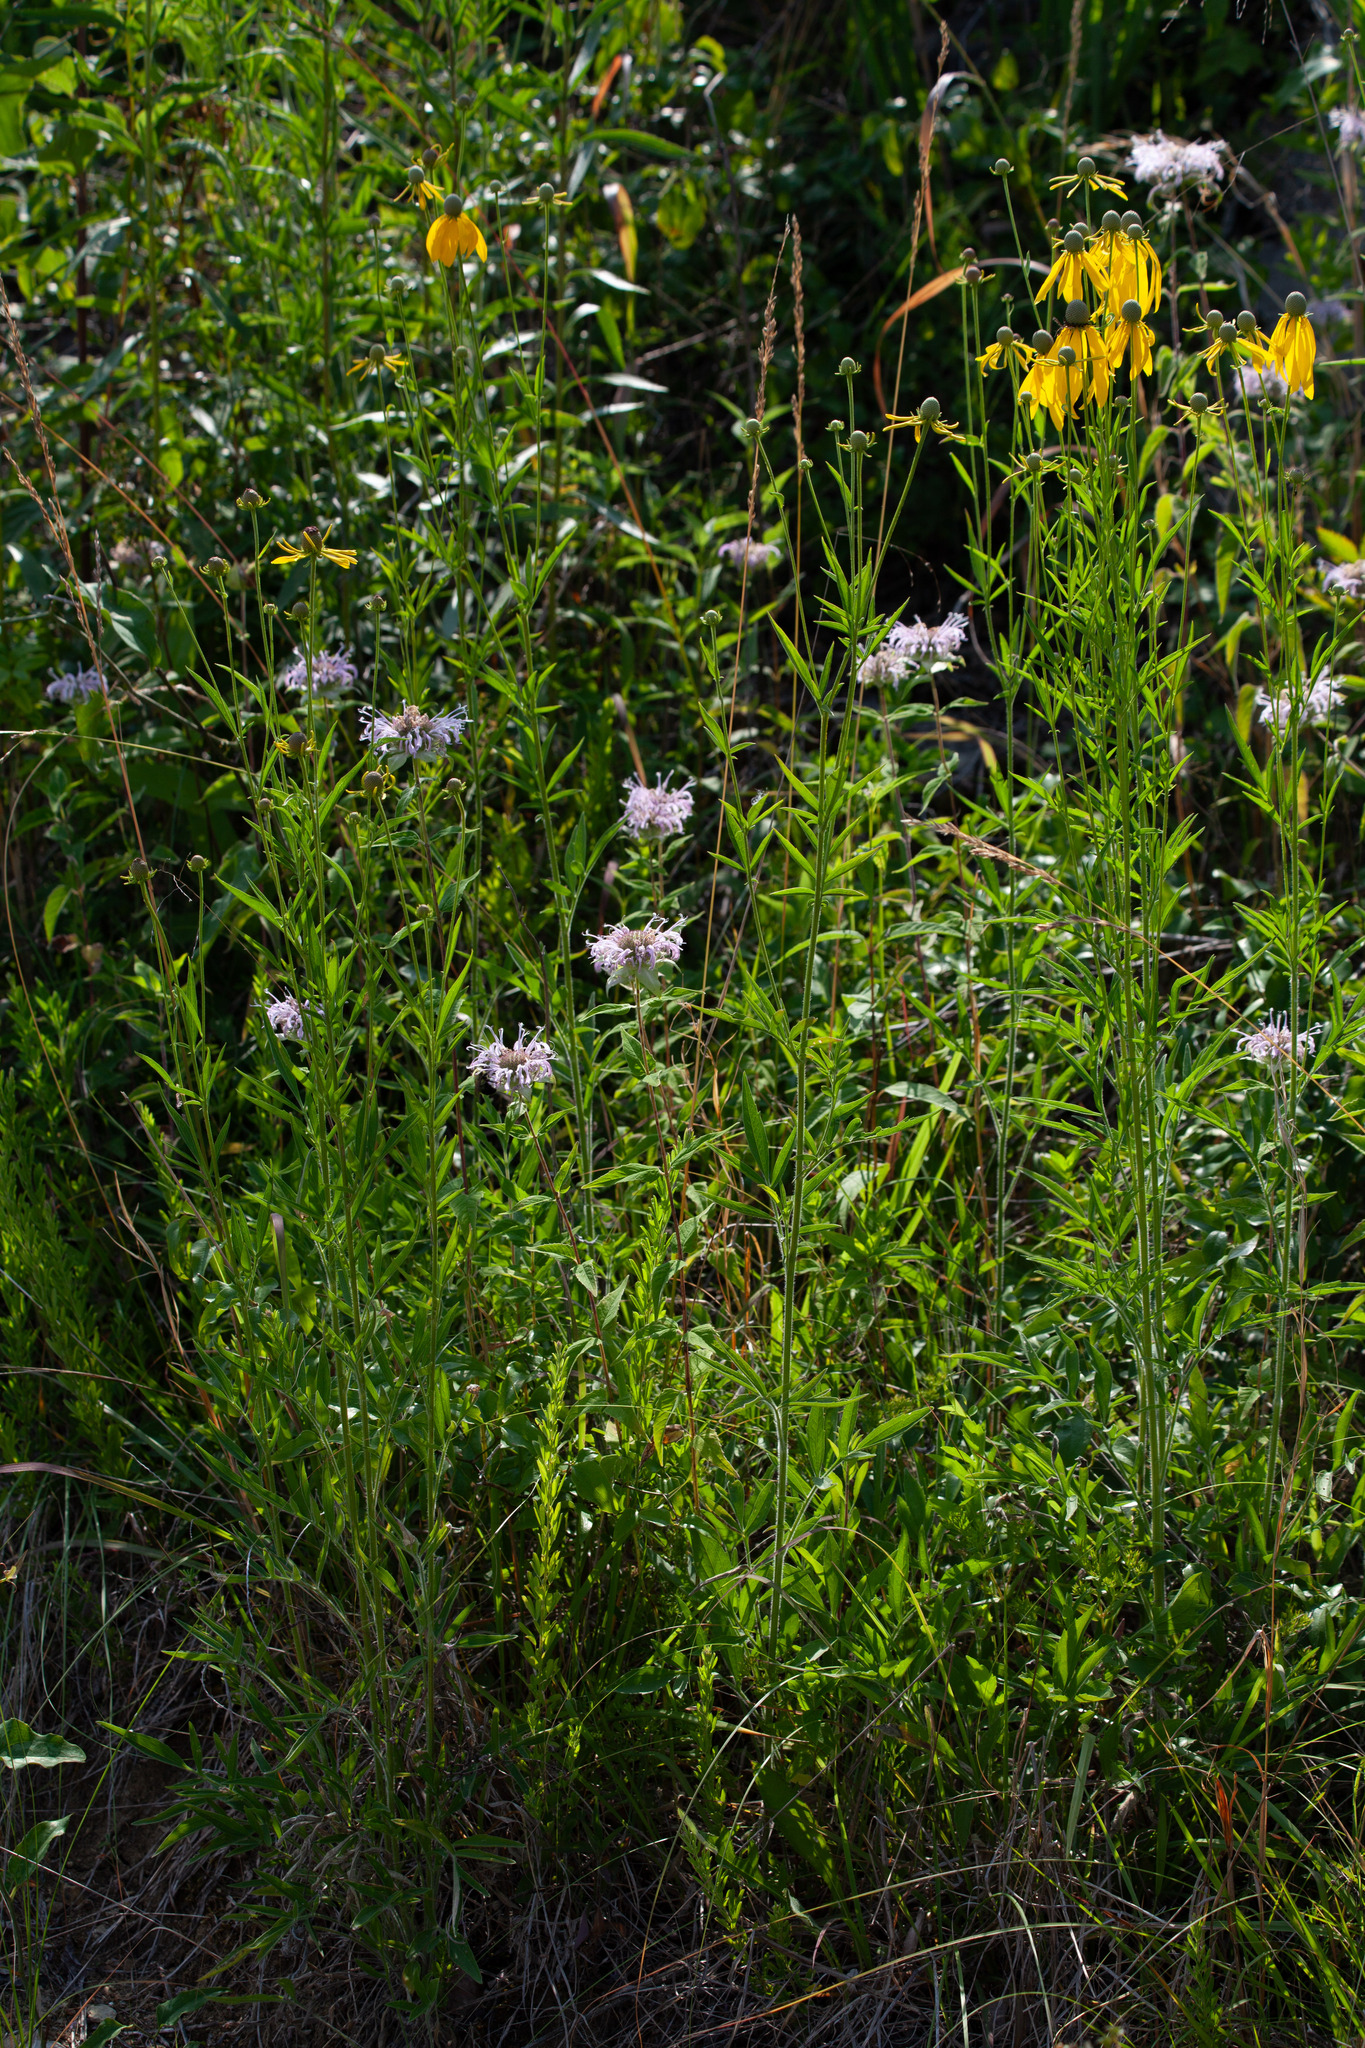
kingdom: Plantae
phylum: Tracheophyta
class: Magnoliopsida
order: Lamiales
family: Lamiaceae
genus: Monarda
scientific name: Monarda fistulosa
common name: Purple beebalm
